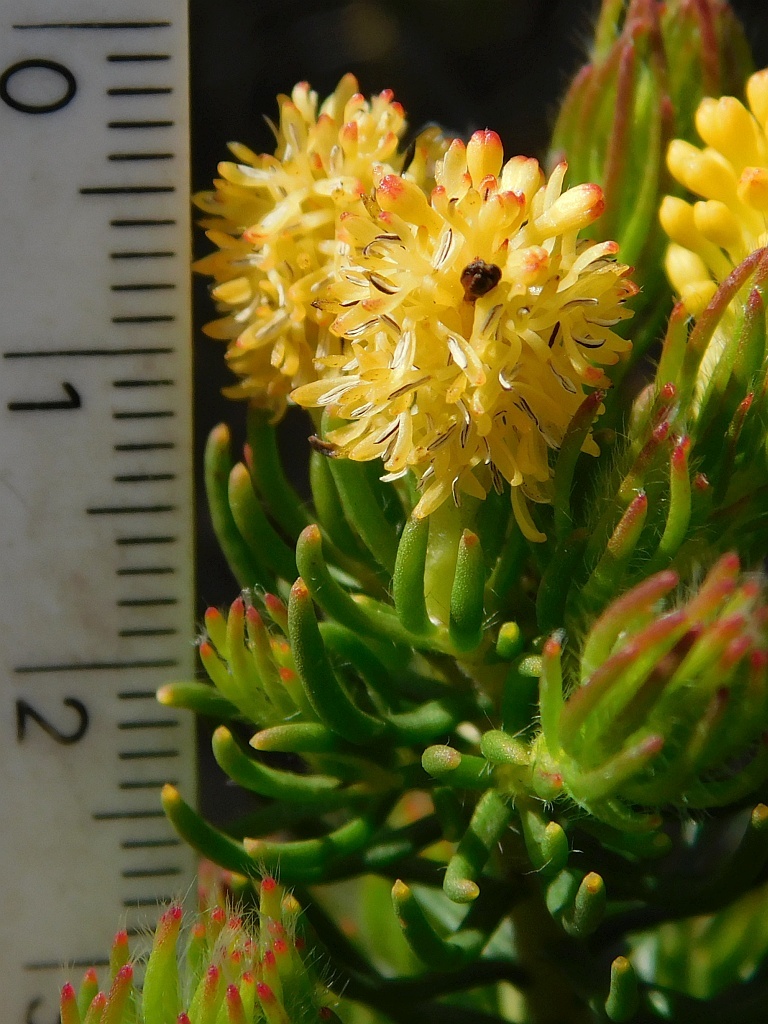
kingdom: Plantae
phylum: Tracheophyta
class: Magnoliopsida
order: Proteales
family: Proteaceae
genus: Leucadendron
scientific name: Leucadendron teretifolium
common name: Needle-leaf conebush
